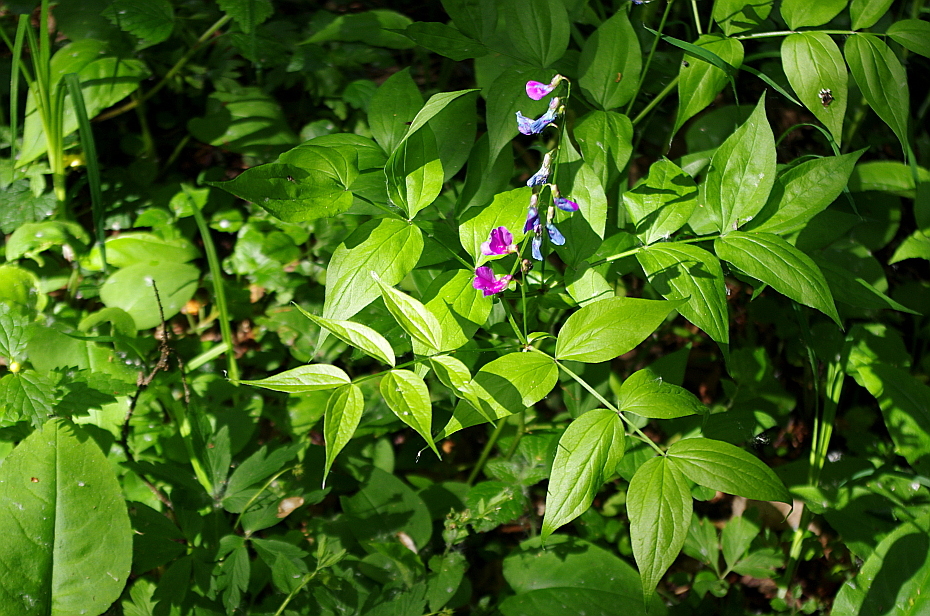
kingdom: Plantae
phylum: Tracheophyta
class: Magnoliopsida
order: Fabales
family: Fabaceae
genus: Lathyrus
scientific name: Lathyrus vernus
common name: Spring pea
